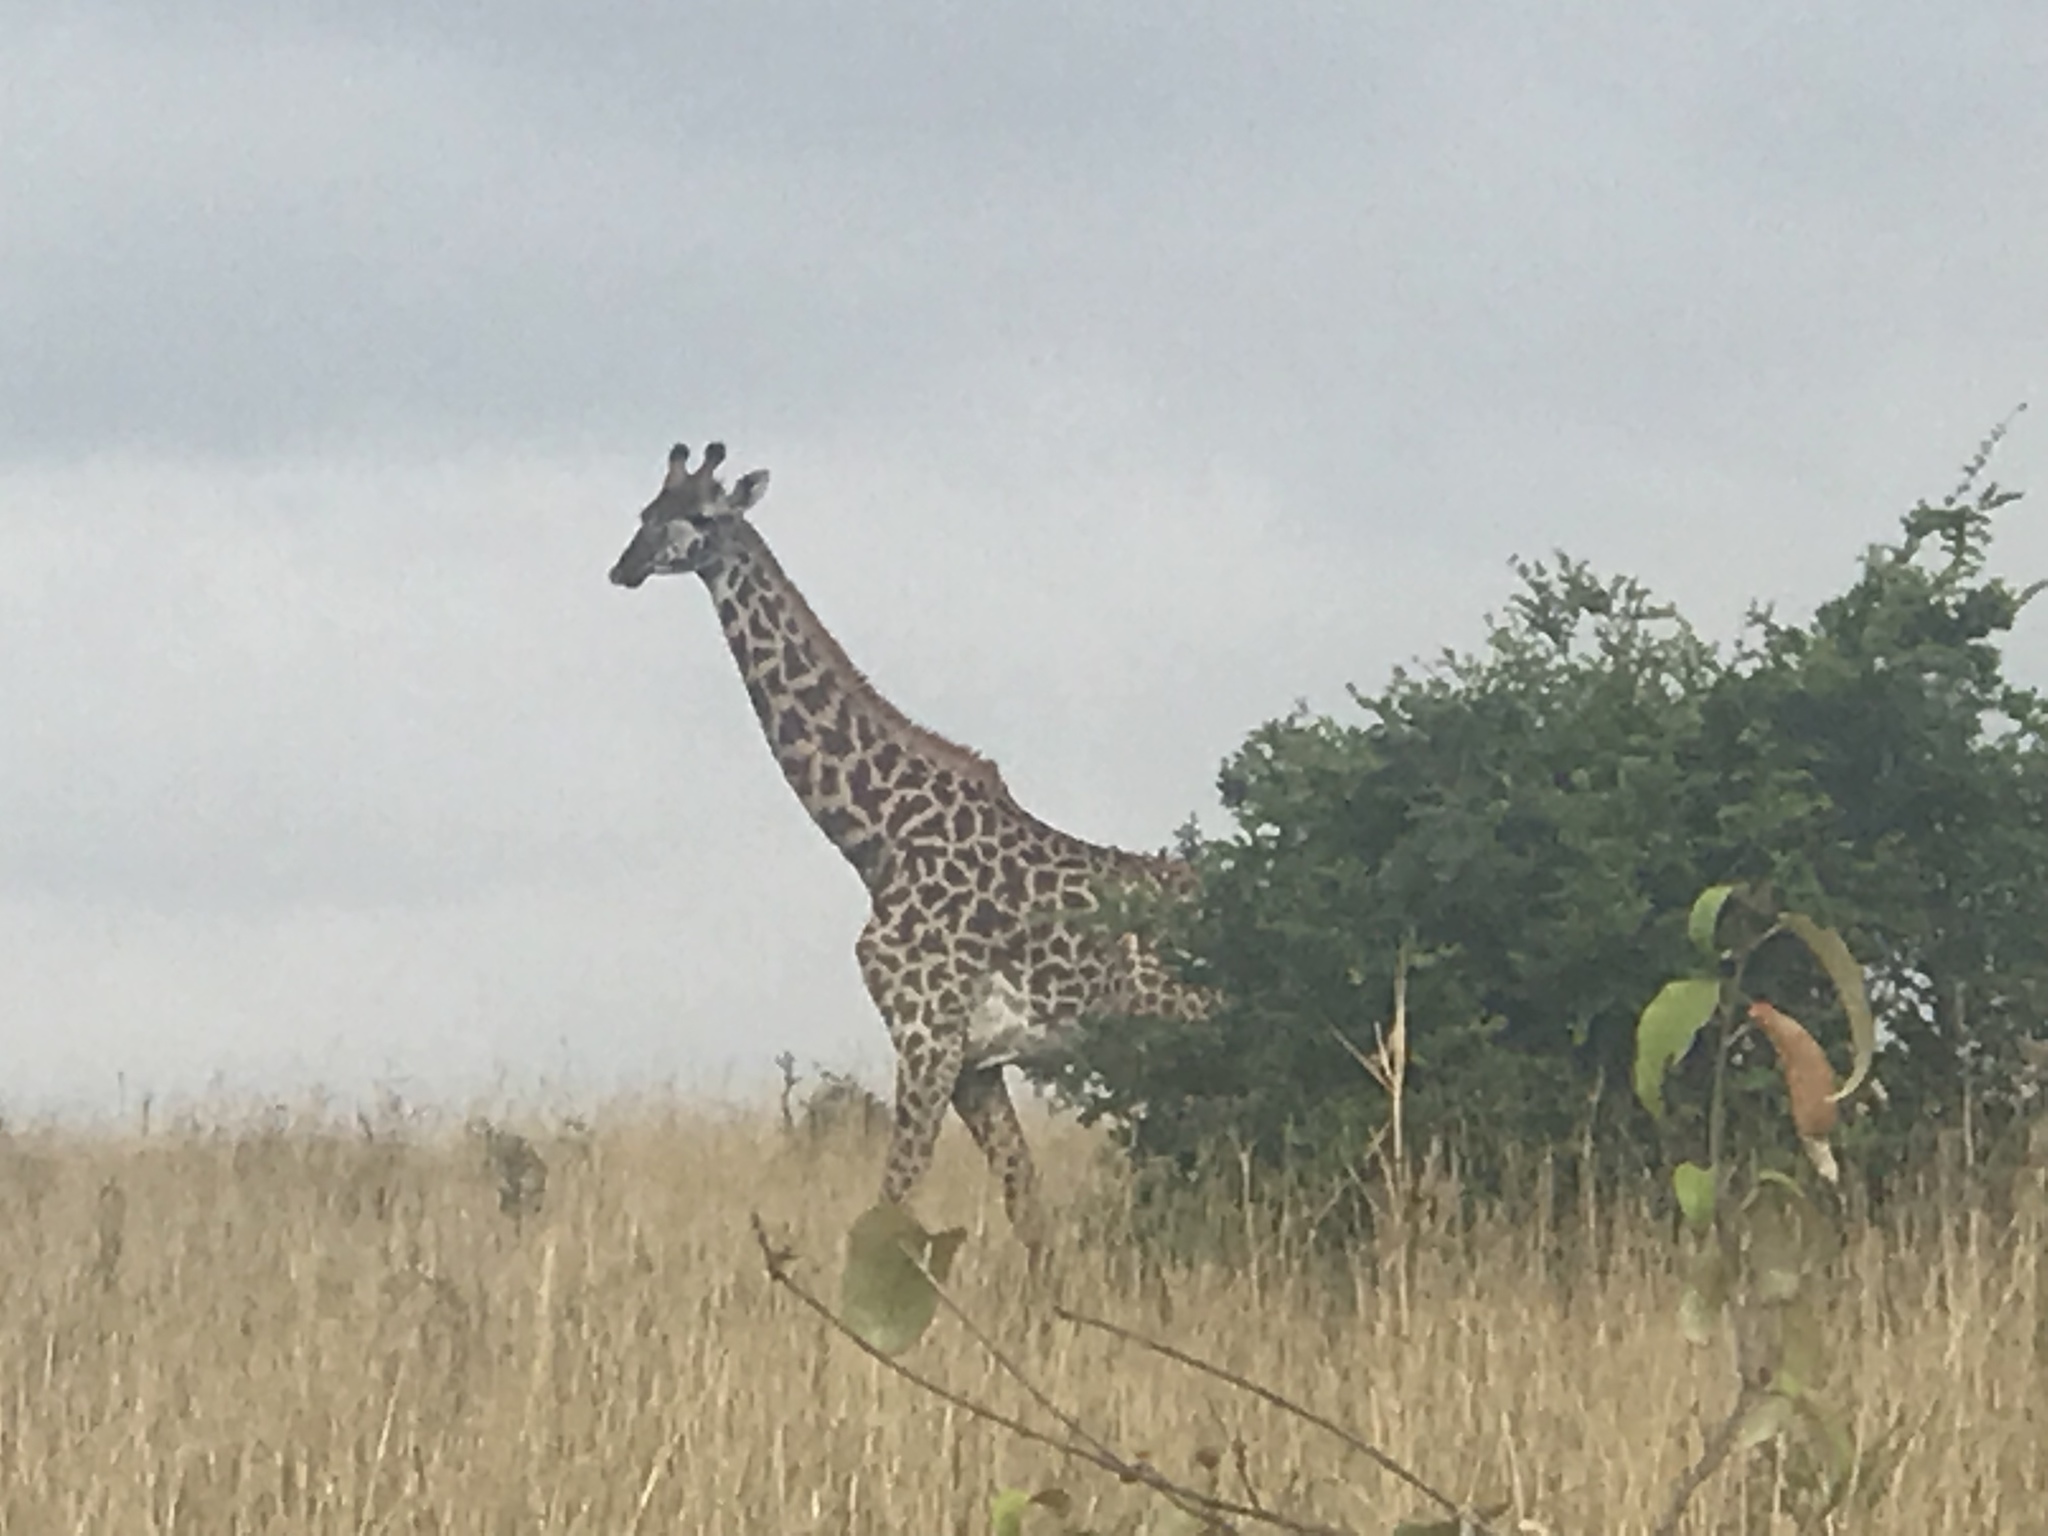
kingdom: Animalia
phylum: Chordata
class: Mammalia
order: Artiodactyla
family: Giraffidae
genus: Giraffa
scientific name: Giraffa tippelskirchi
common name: Masai giraffe
